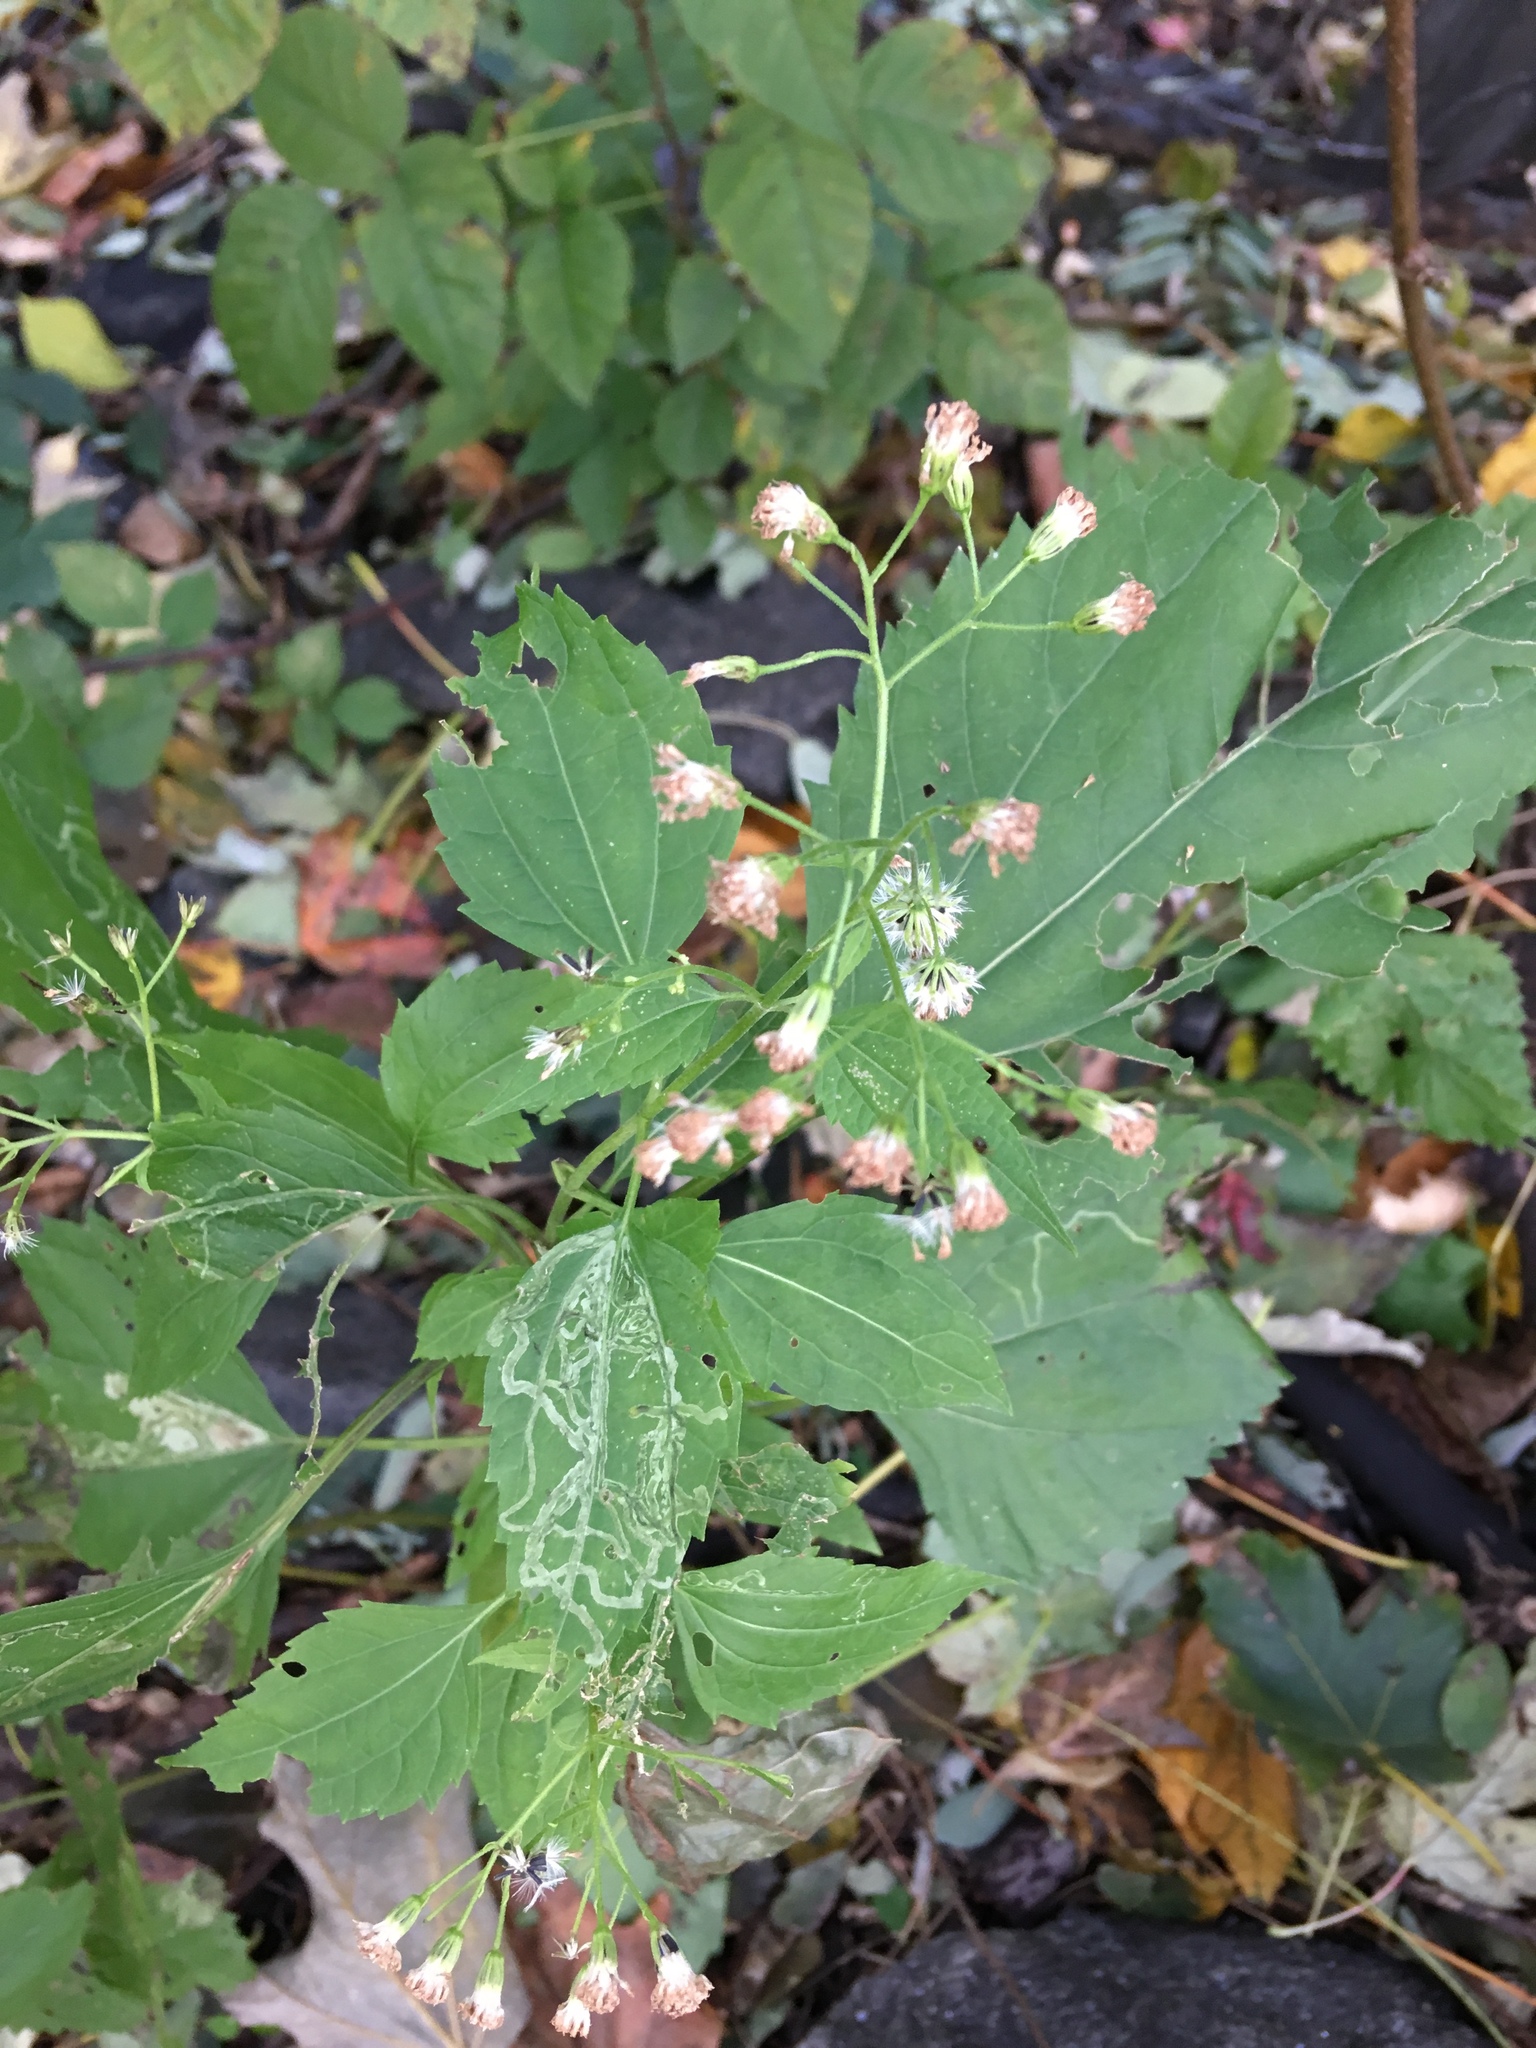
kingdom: Plantae
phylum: Tracheophyta
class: Magnoliopsida
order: Asterales
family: Asteraceae
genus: Ageratina
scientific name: Ageratina altissima
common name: White snakeroot
